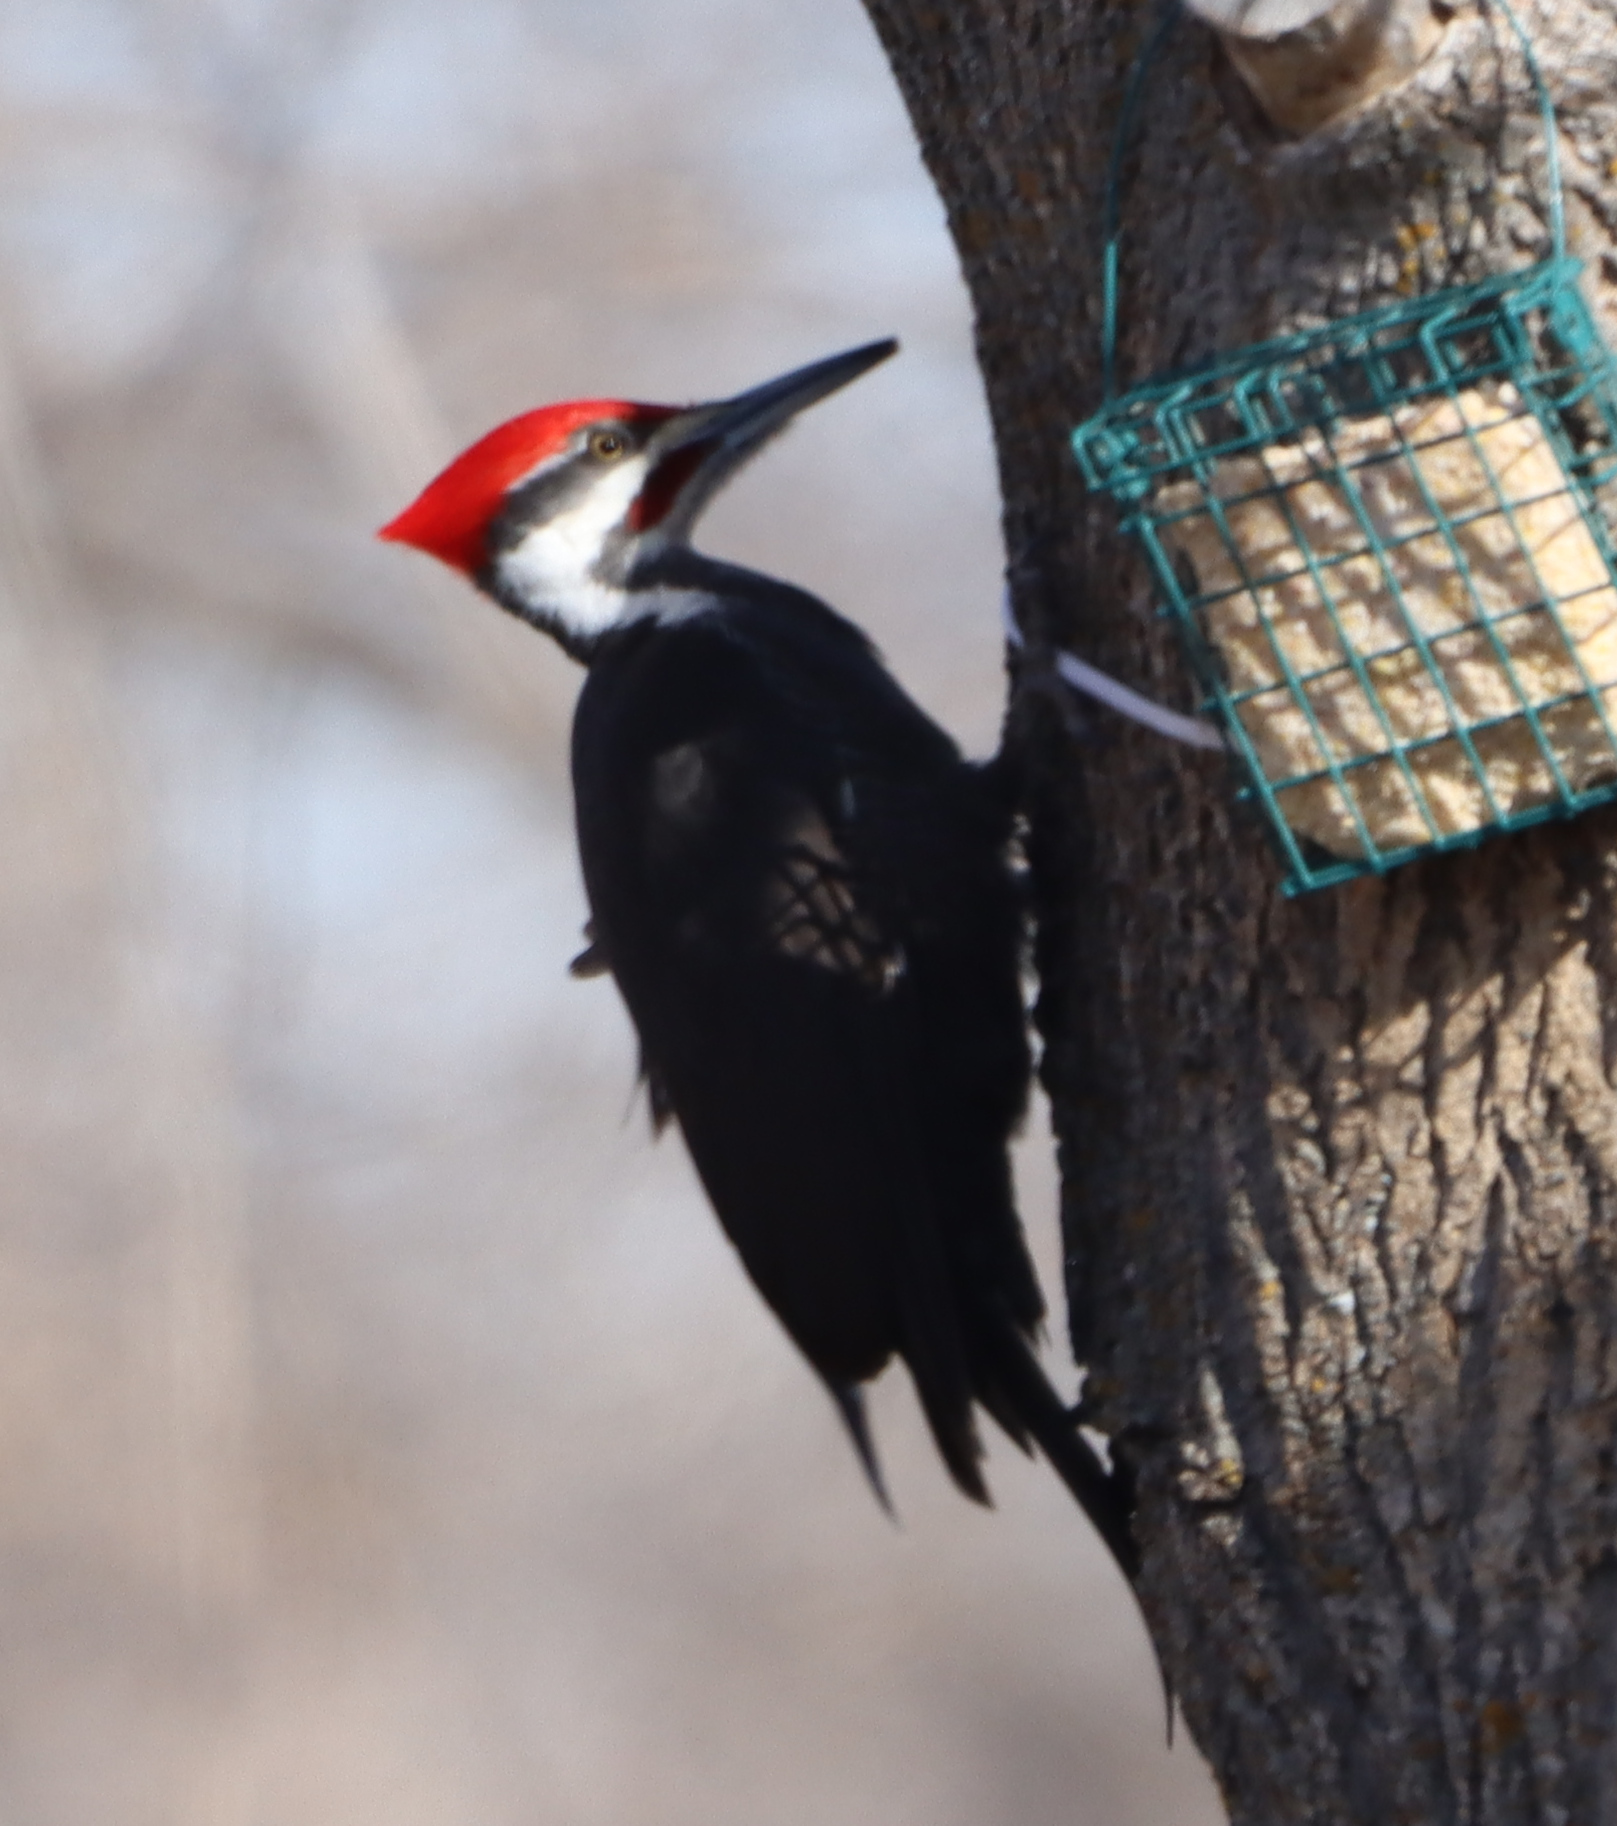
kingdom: Animalia
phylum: Chordata
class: Aves
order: Piciformes
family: Picidae
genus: Dryocopus
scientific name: Dryocopus pileatus
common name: Pileated woodpecker
